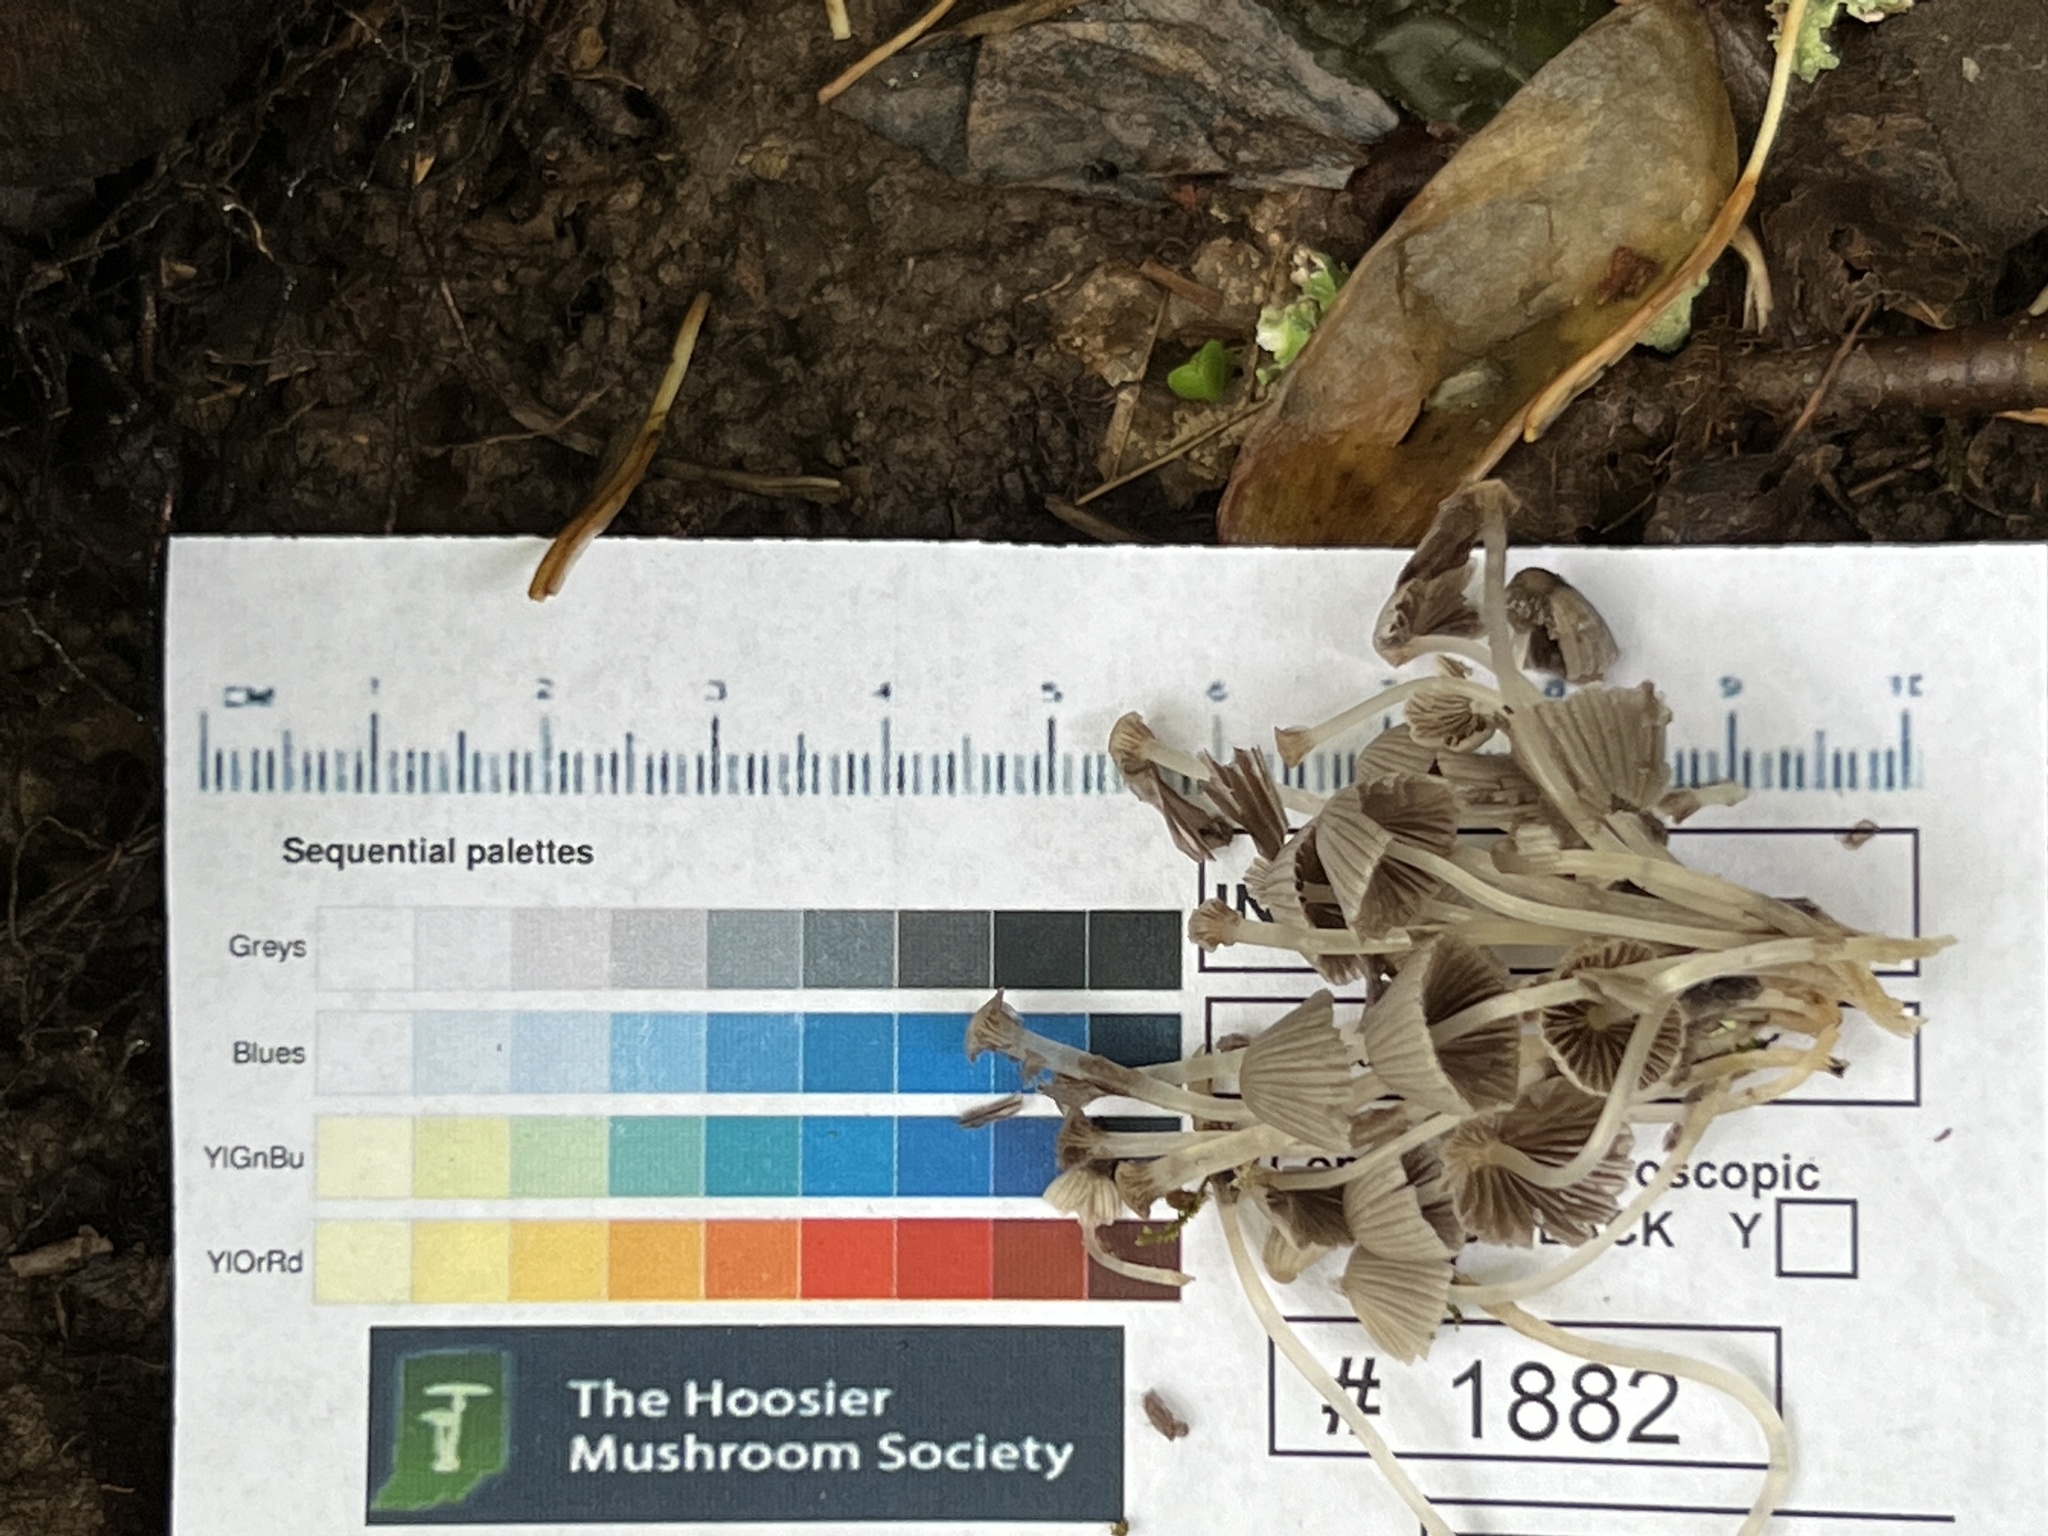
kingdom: Fungi
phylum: Basidiomycota
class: Agaricomycetes
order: Agaricales
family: Psathyrellaceae
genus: Coprinellus
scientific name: Coprinellus disseminatus
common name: Fairies' bonnets
